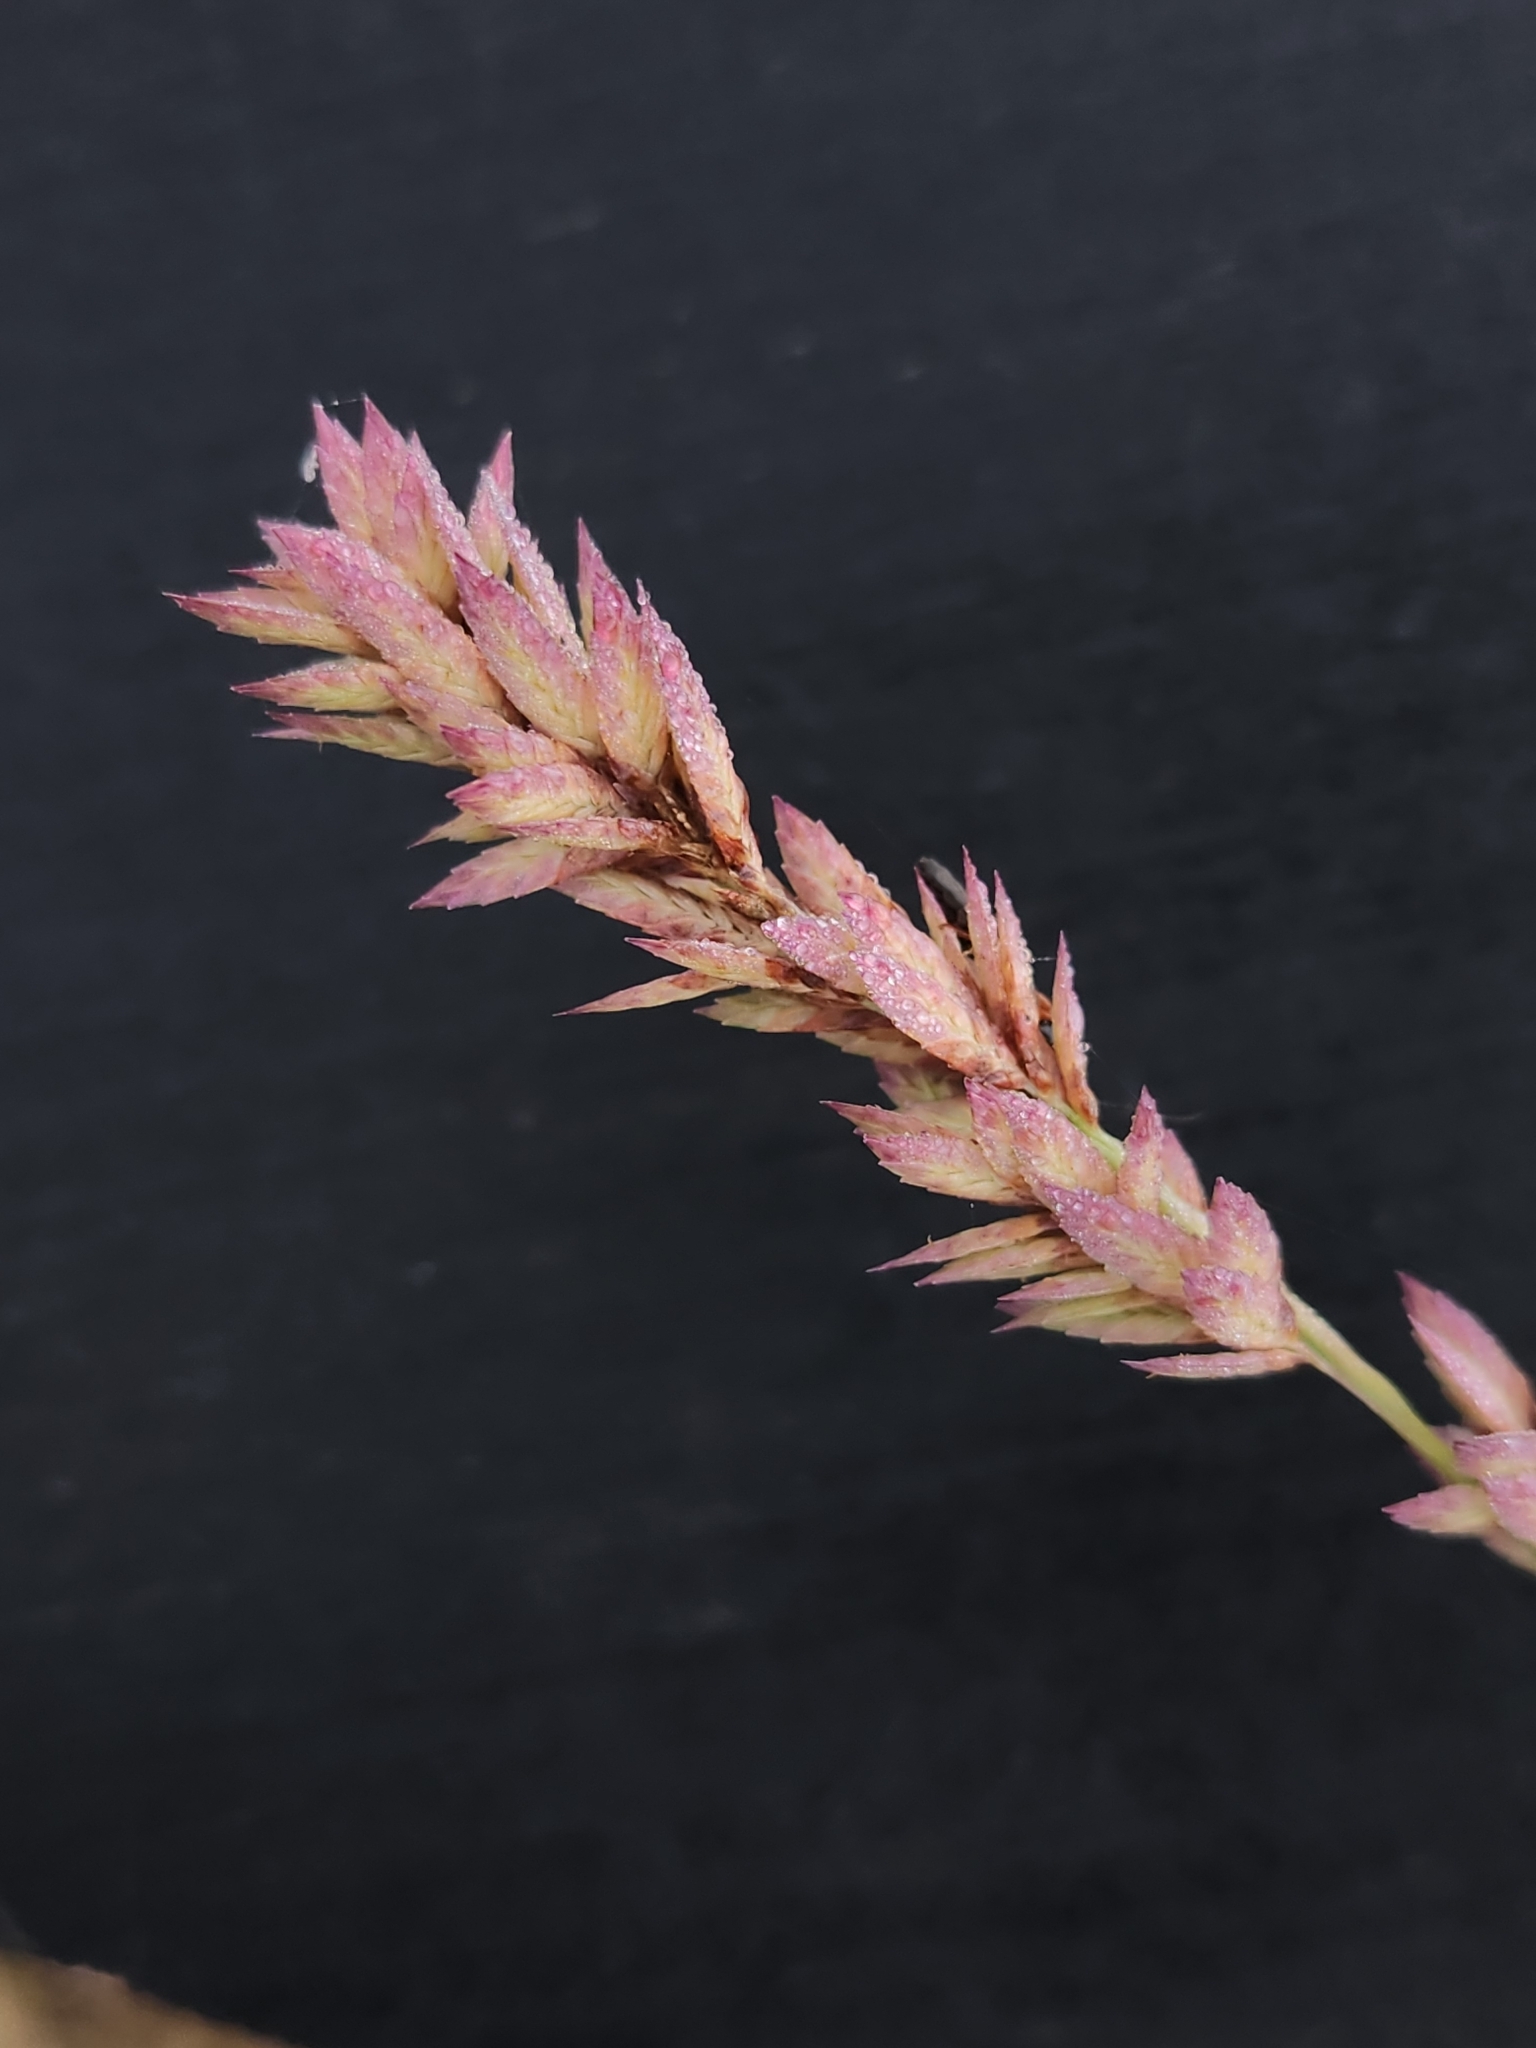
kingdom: Plantae
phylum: Tracheophyta
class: Liliopsida
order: Poales
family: Poaceae
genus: Eragrostis
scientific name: Eragrostis secundiflora
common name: Red love grass
